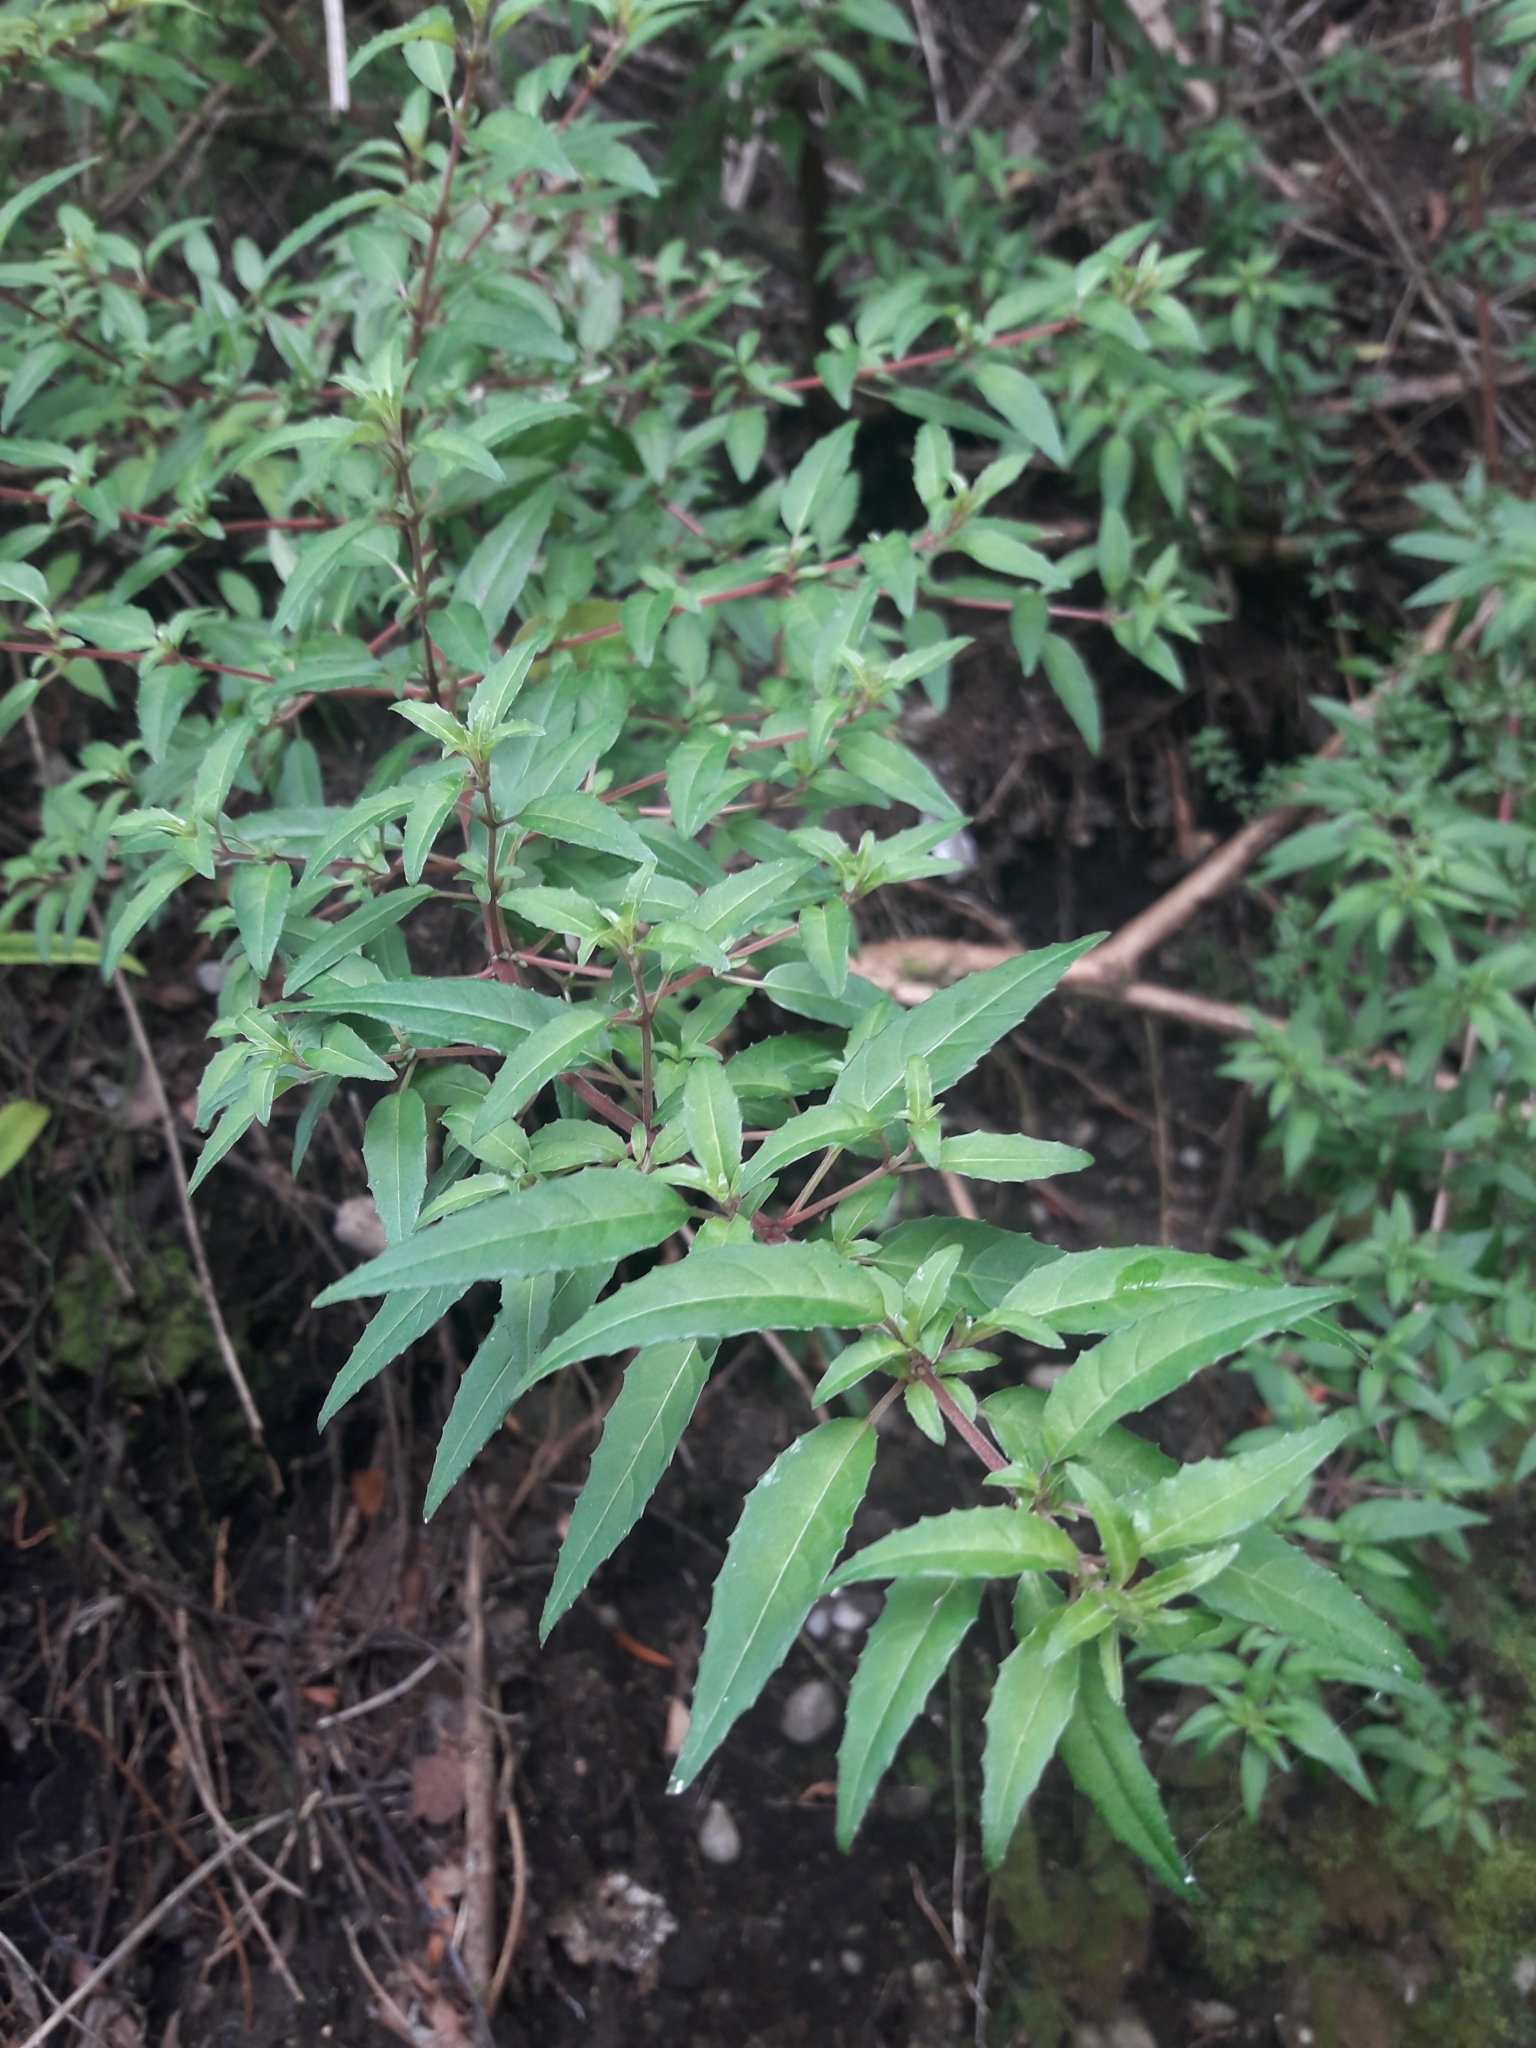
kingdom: Plantae
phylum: Tracheophyta
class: Magnoliopsida
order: Myrtales
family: Onagraceae
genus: Fuchsia
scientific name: Fuchsia magellanica
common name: Hardy fuchsia
